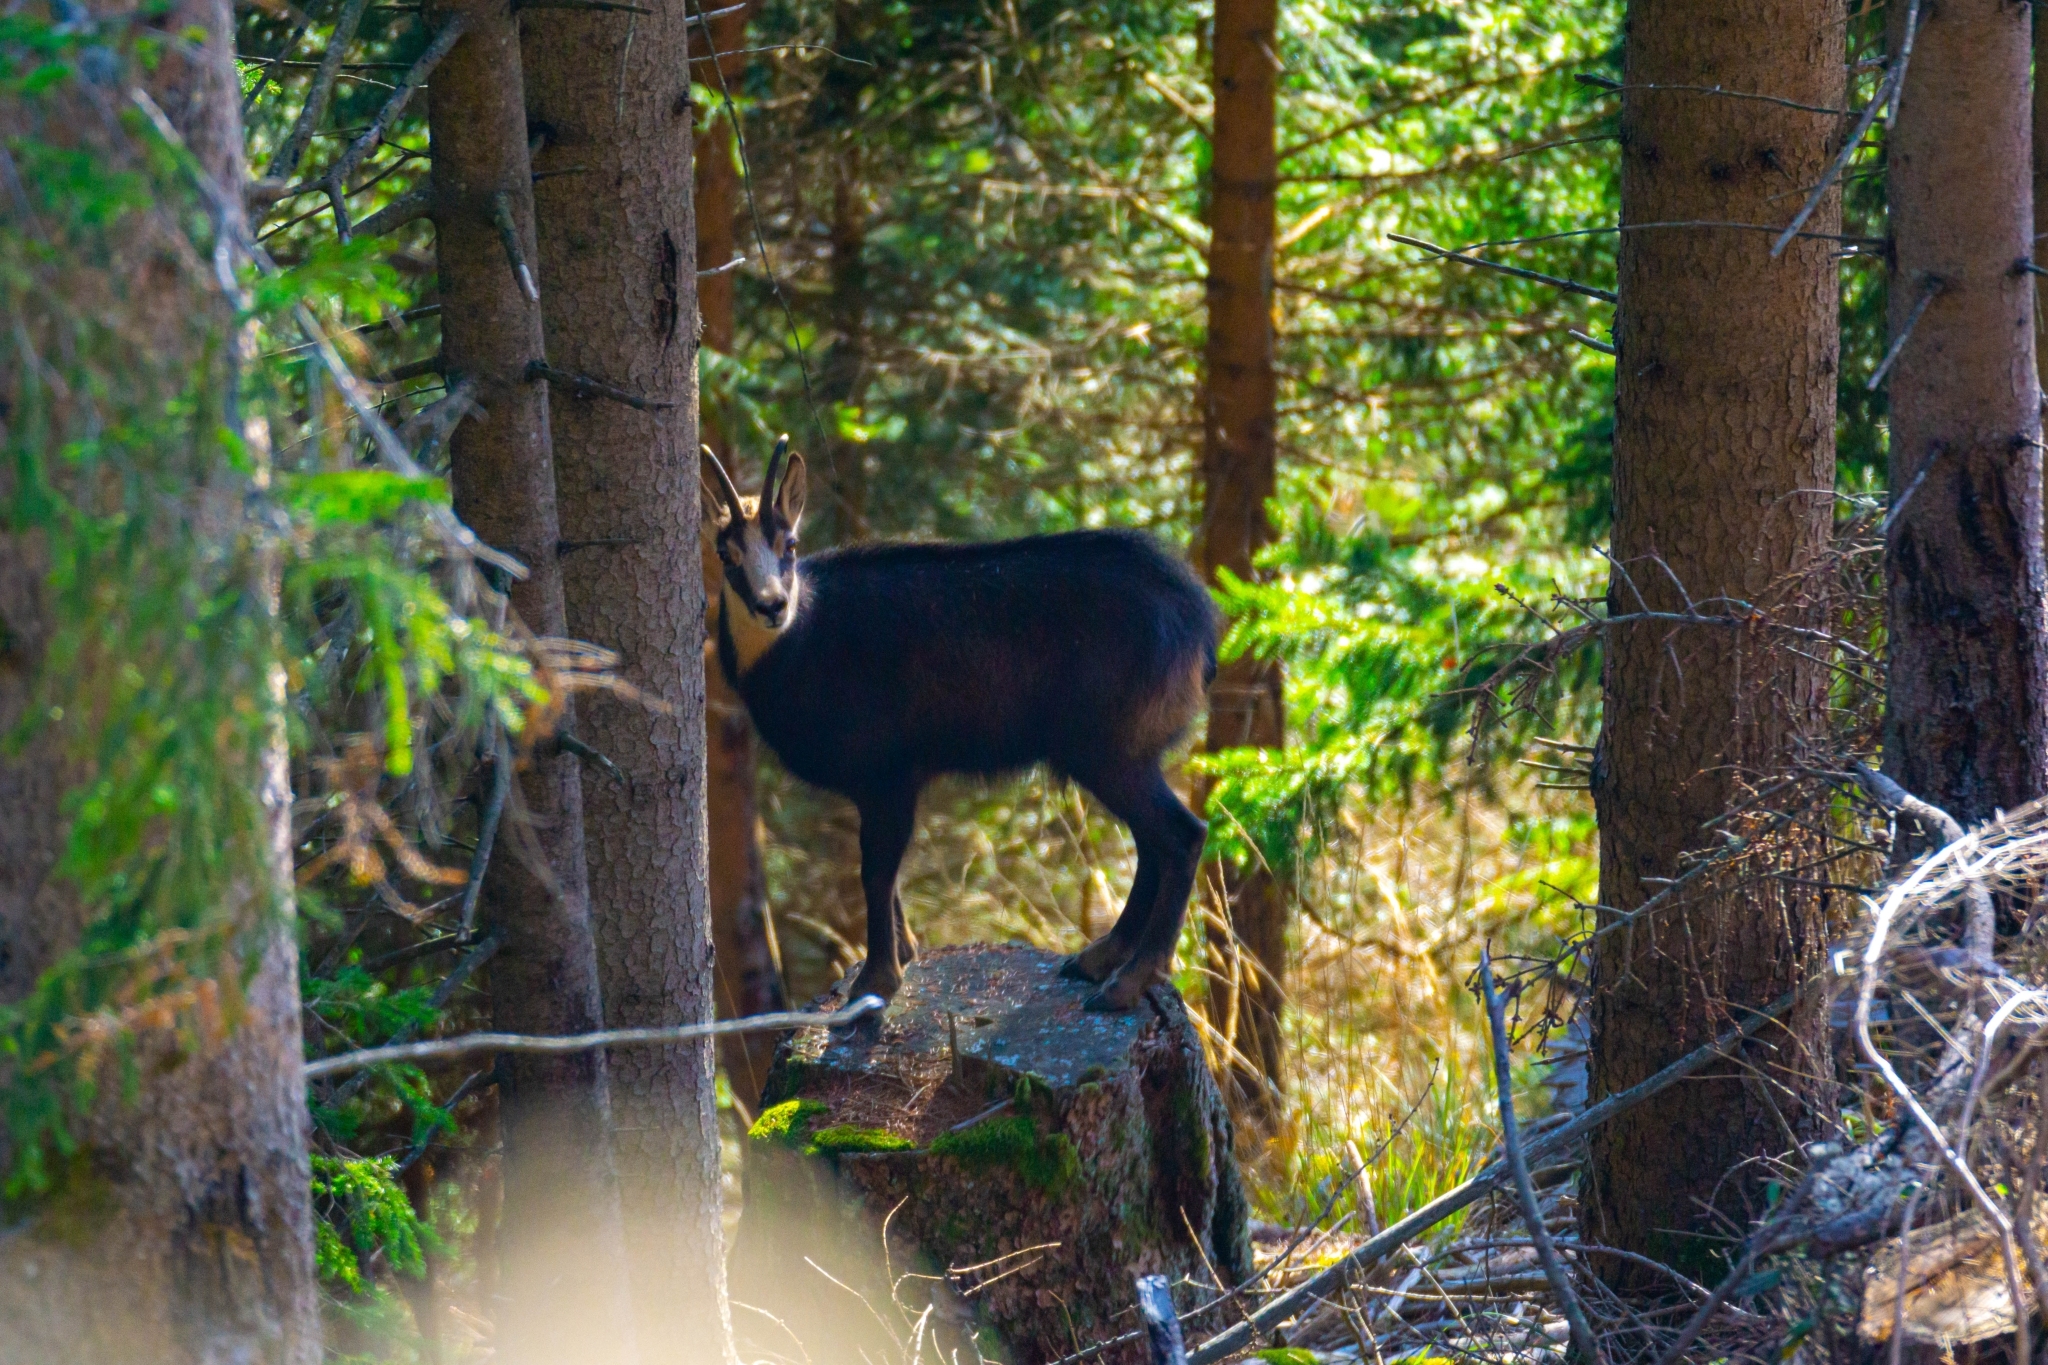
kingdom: Animalia
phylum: Chordata
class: Mammalia
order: Artiodactyla
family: Bovidae
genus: Rupicapra
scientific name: Rupicapra rupicapra
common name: Chamois
